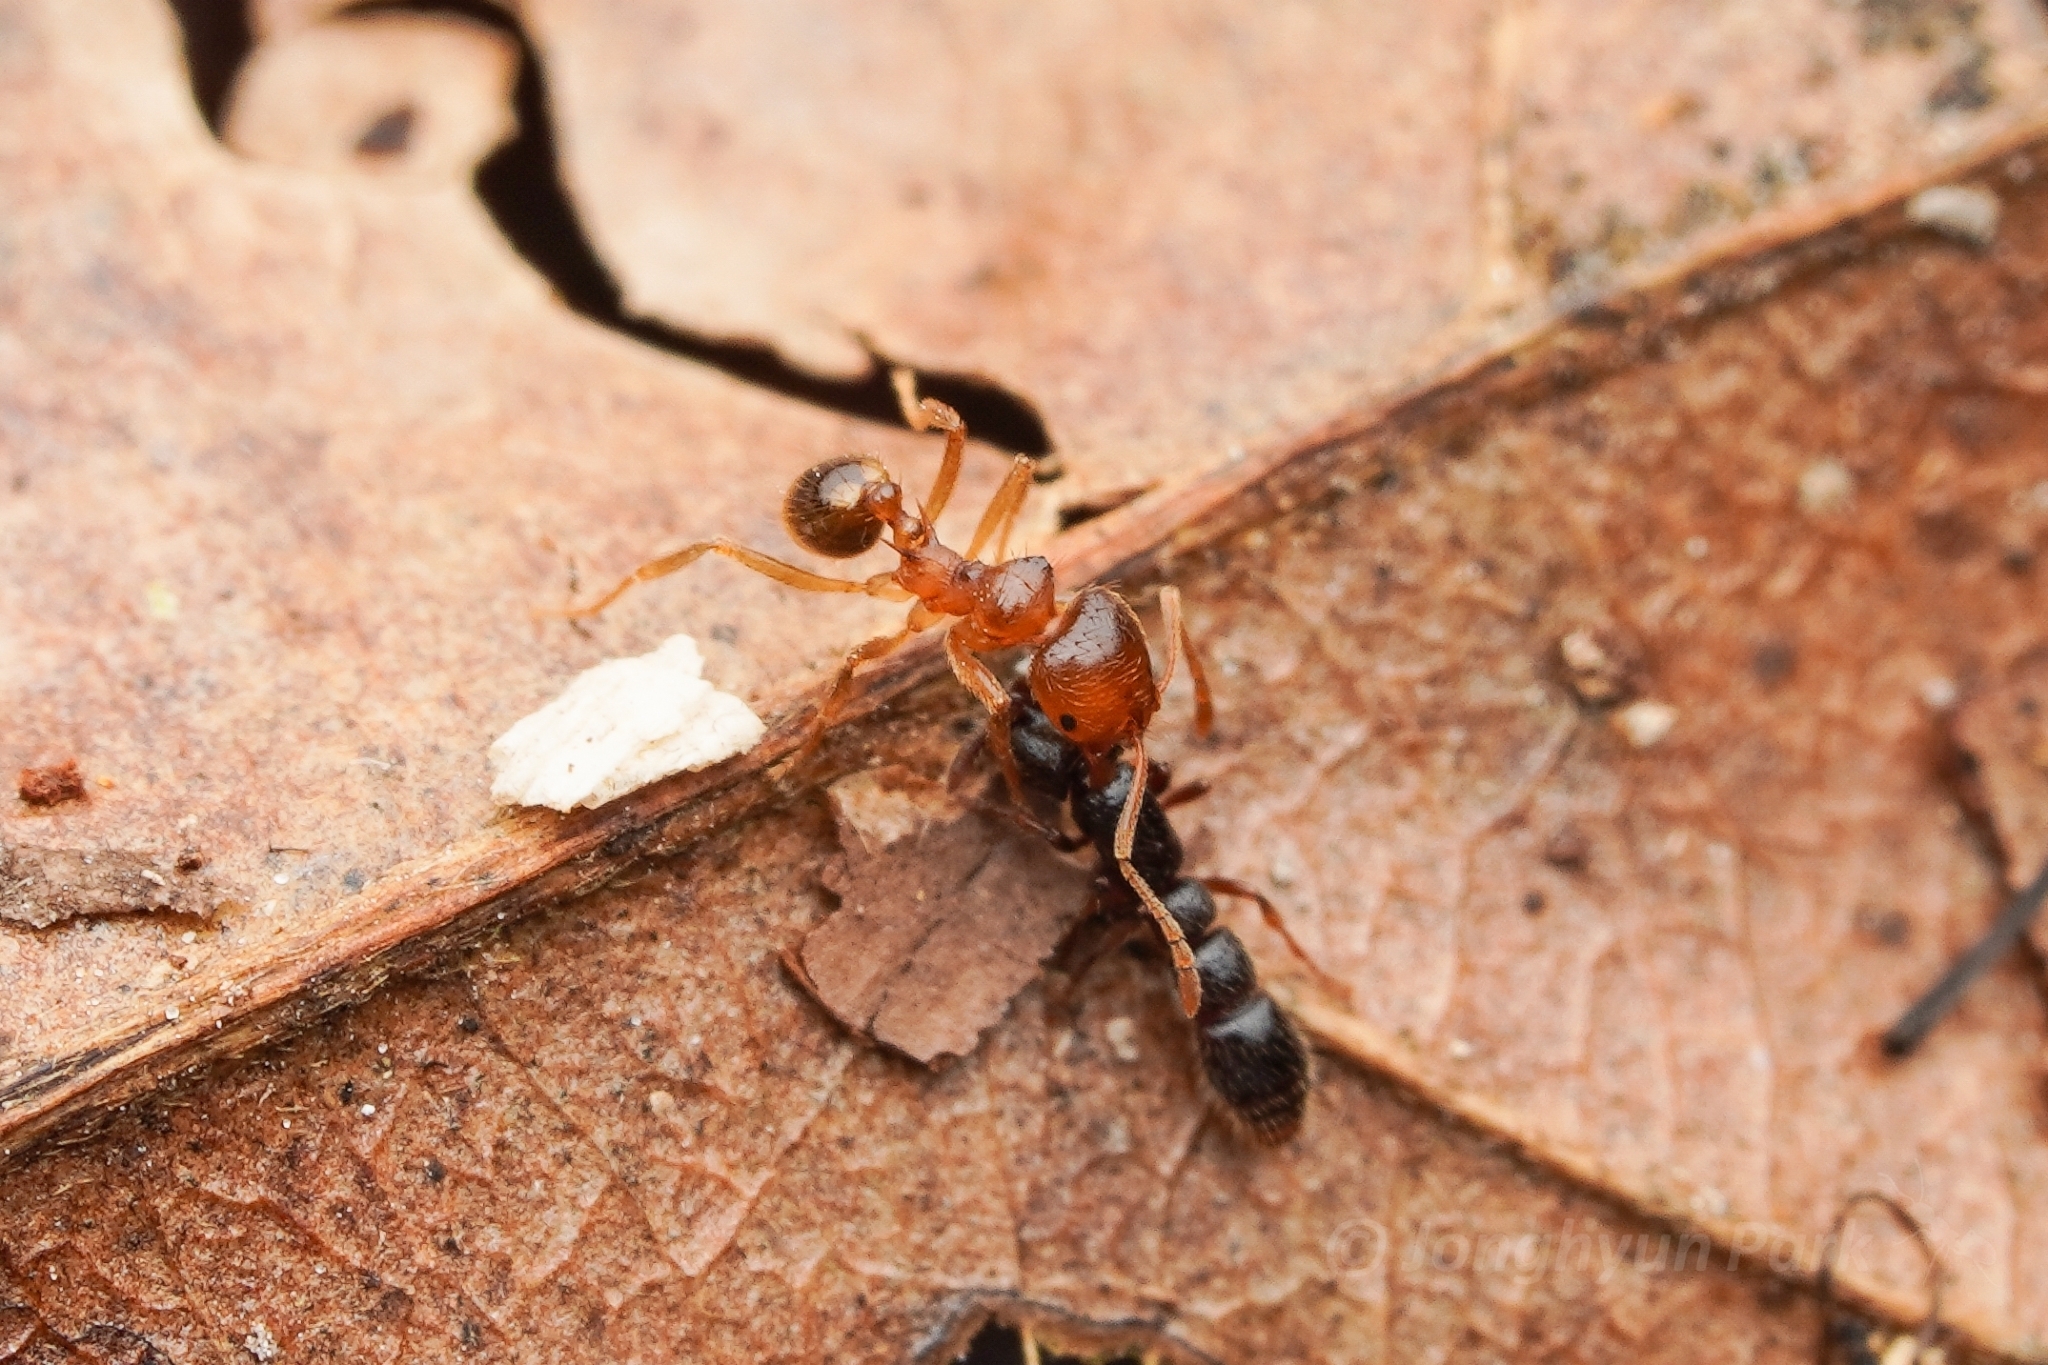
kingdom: Animalia
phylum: Arthropoda
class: Insecta
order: Hymenoptera
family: Formicidae
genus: Lophomyrmex
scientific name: Lophomyrmex longicornis
